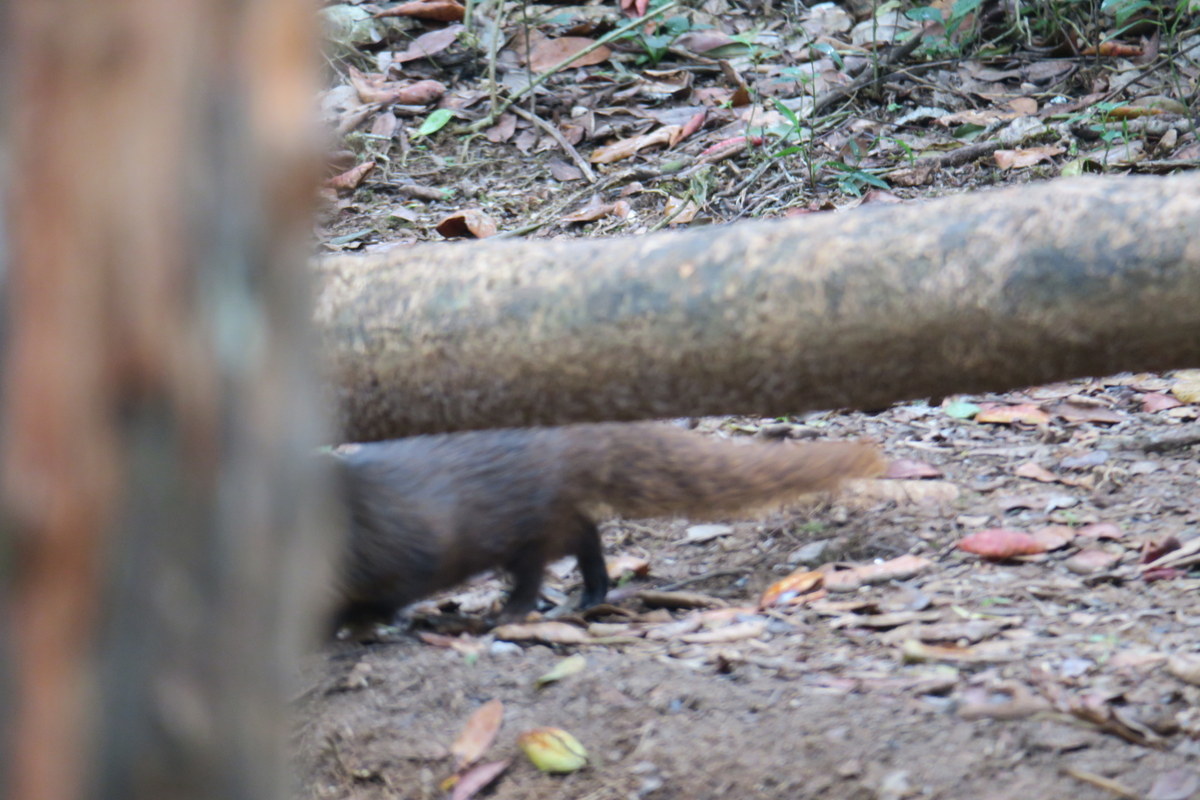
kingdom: Animalia
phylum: Chordata
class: Mammalia
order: Carnivora
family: Herpestidae
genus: Herpestes
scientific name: Herpestes fuscus
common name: Indian brown mongoose
